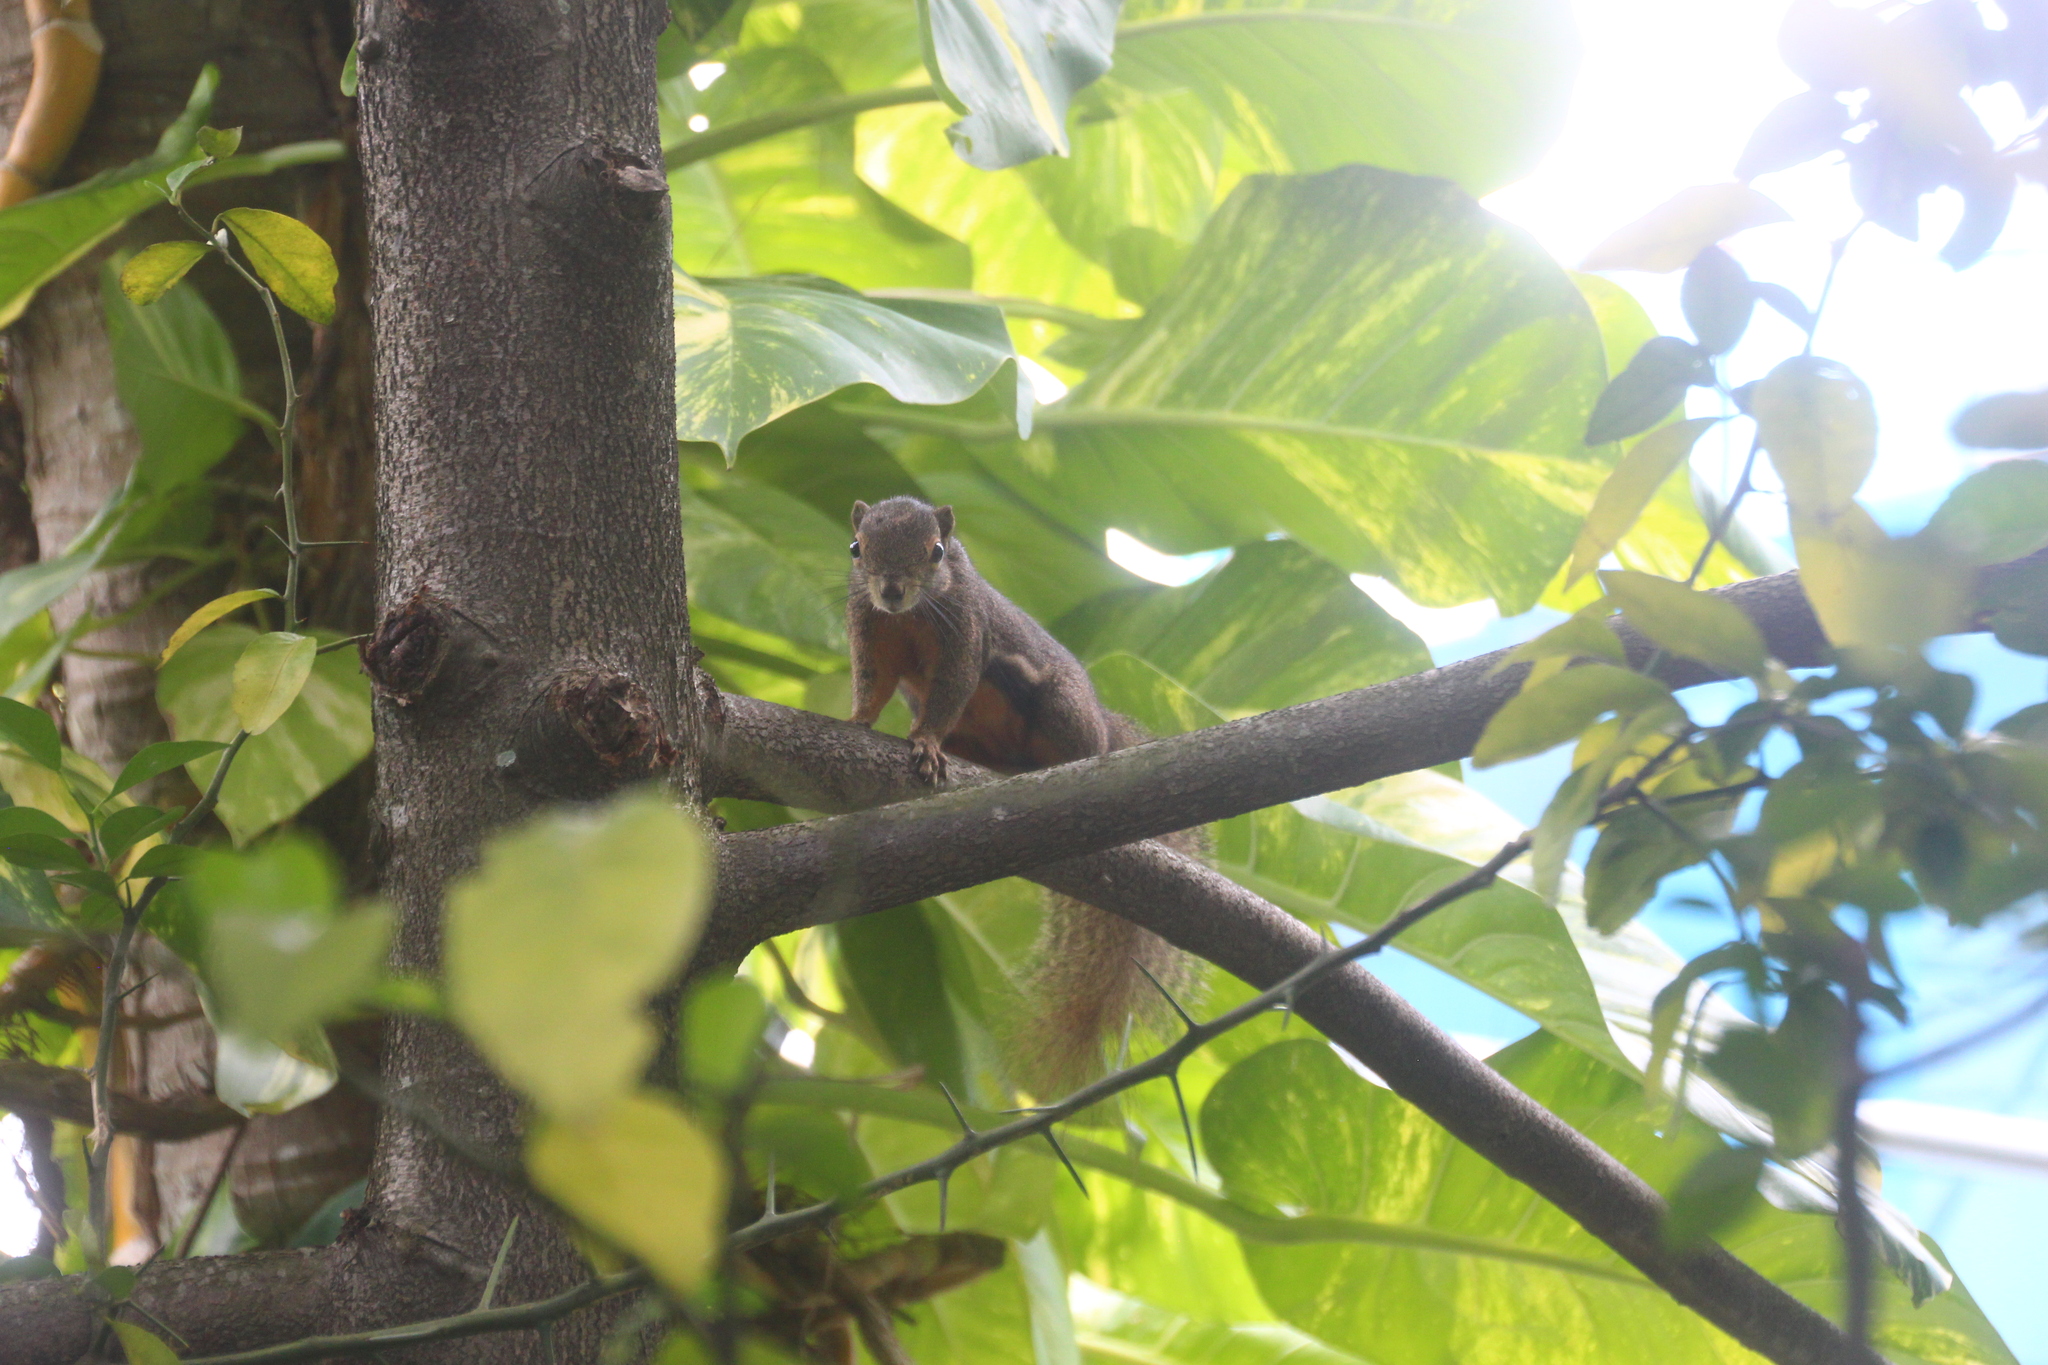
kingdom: Animalia
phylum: Chordata
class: Mammalia
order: Rodentia
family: Sciuridae
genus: Callosciurus
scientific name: Callosciurus notatus
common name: Plantain squirrel
